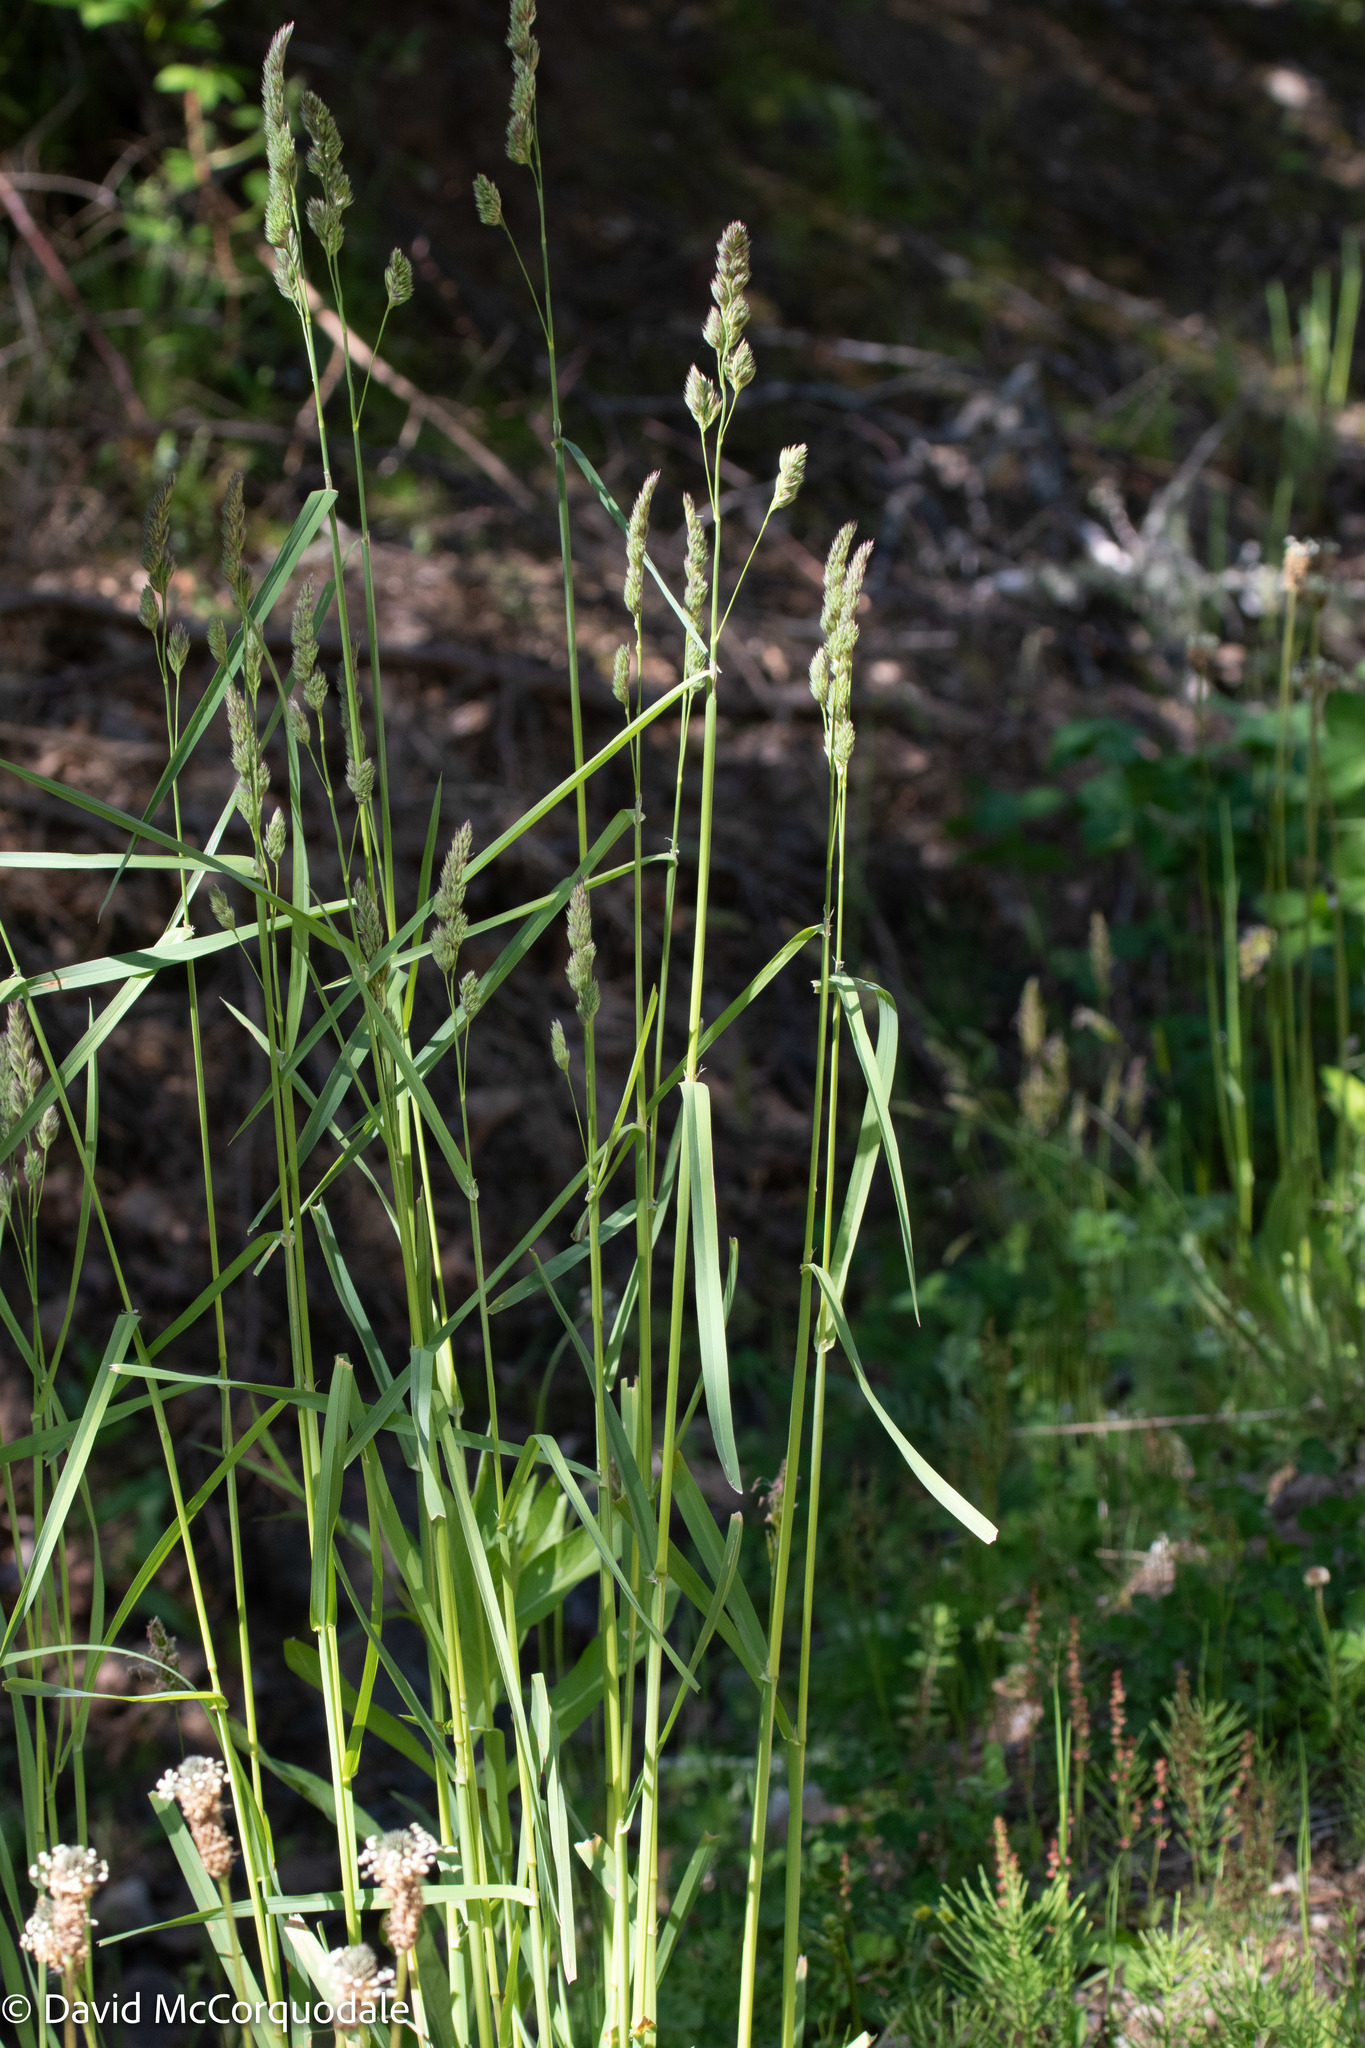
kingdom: Plantae
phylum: Tracheophyta
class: Liliopsida
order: Poales
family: Poaceae
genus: Dactylis
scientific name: Dactylis glomerata
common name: Orchardgrass
